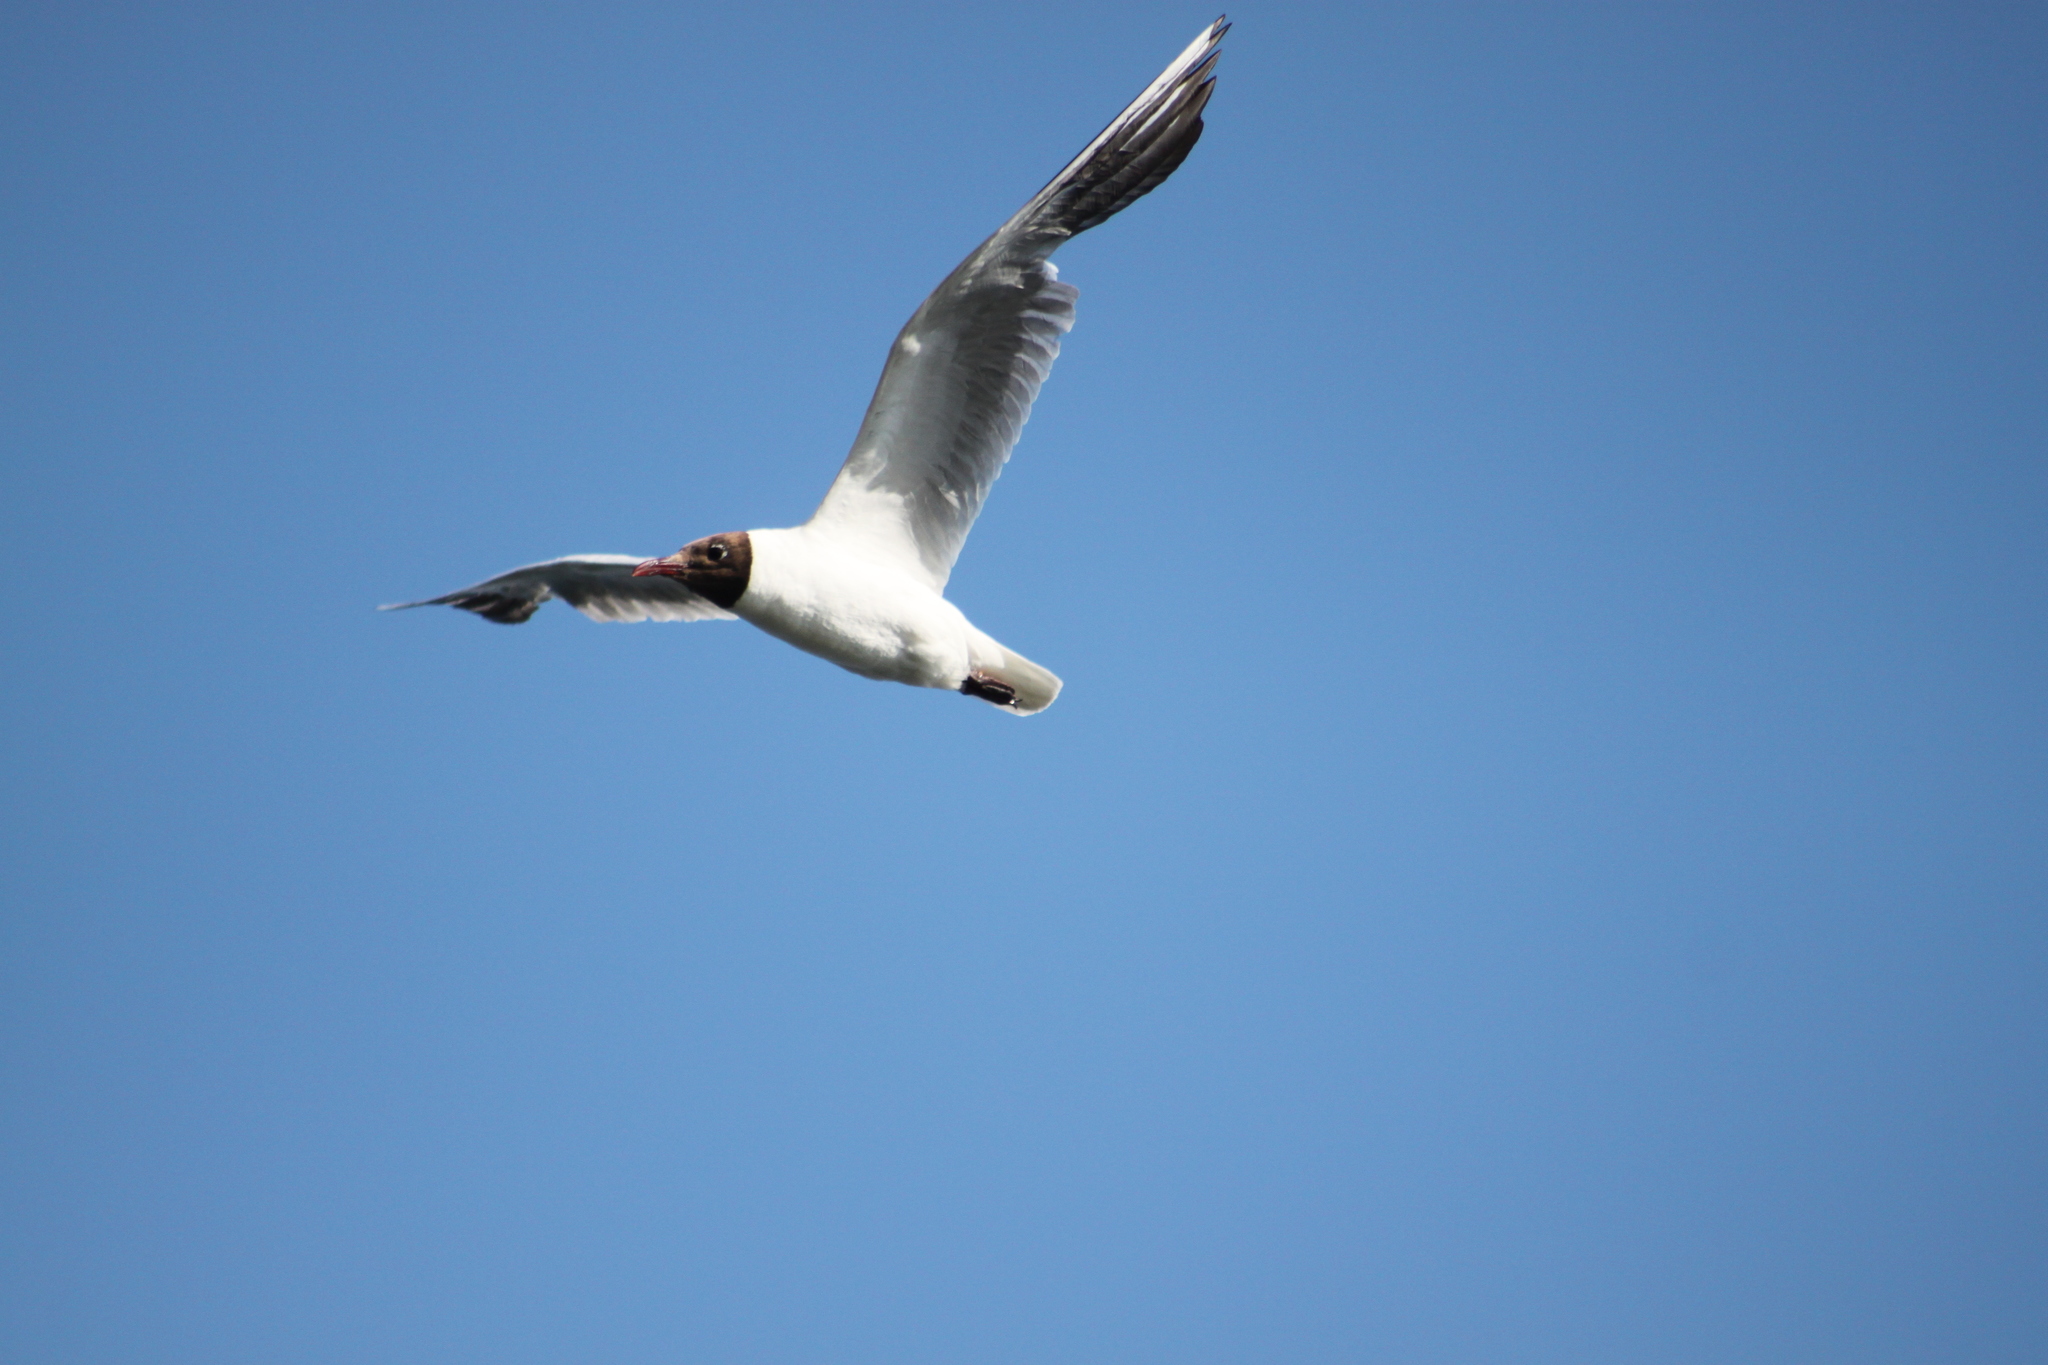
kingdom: Animalia
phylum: Chordata
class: Aves
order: Charadriiformes
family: Laridae
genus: Chroicocephalus
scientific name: Chroicocephalus ridibundus
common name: Black-headed gull
